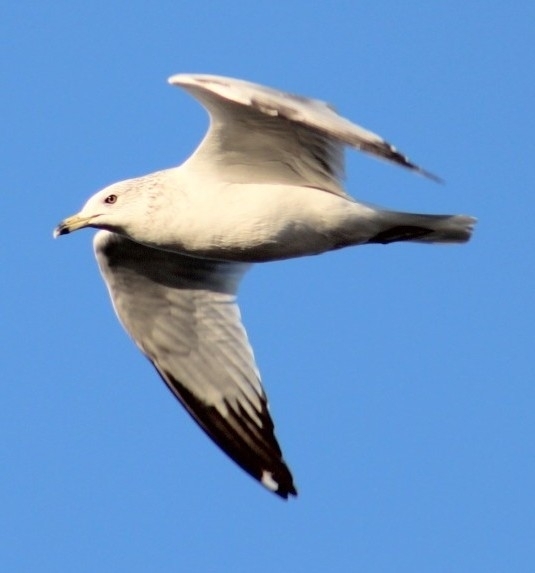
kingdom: Animalia
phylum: Chordata
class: Aves
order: Charadriiformes
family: Laridae
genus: Larus
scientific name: Larus delawarensis
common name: Ring-billed gull
